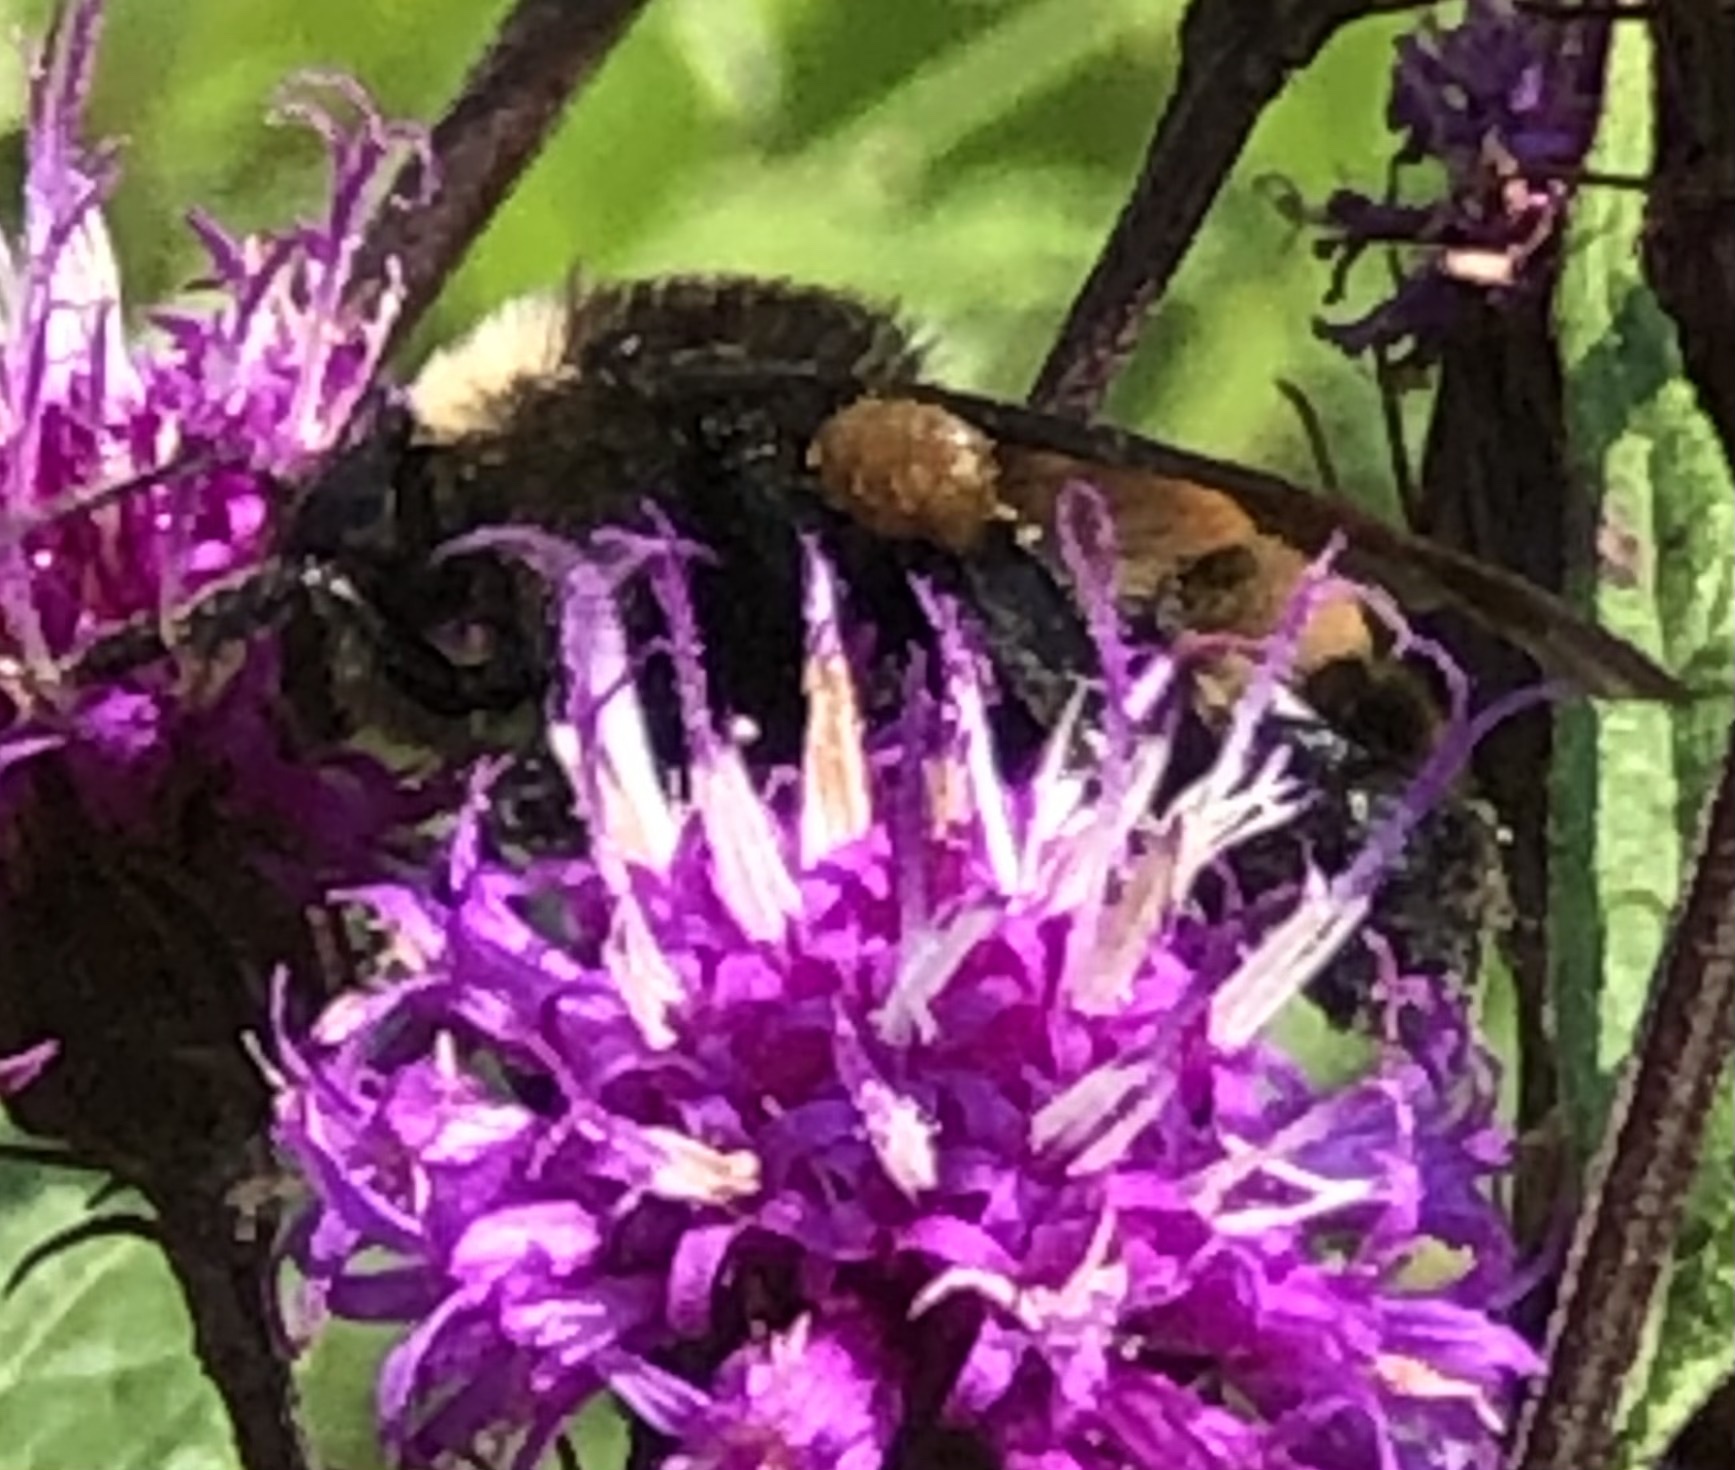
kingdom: Animalia
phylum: Arthropoda
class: Insecta
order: Hymenoptera
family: Apidae
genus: Bombus
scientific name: Bombus pensylvanicus
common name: Bumble bee
